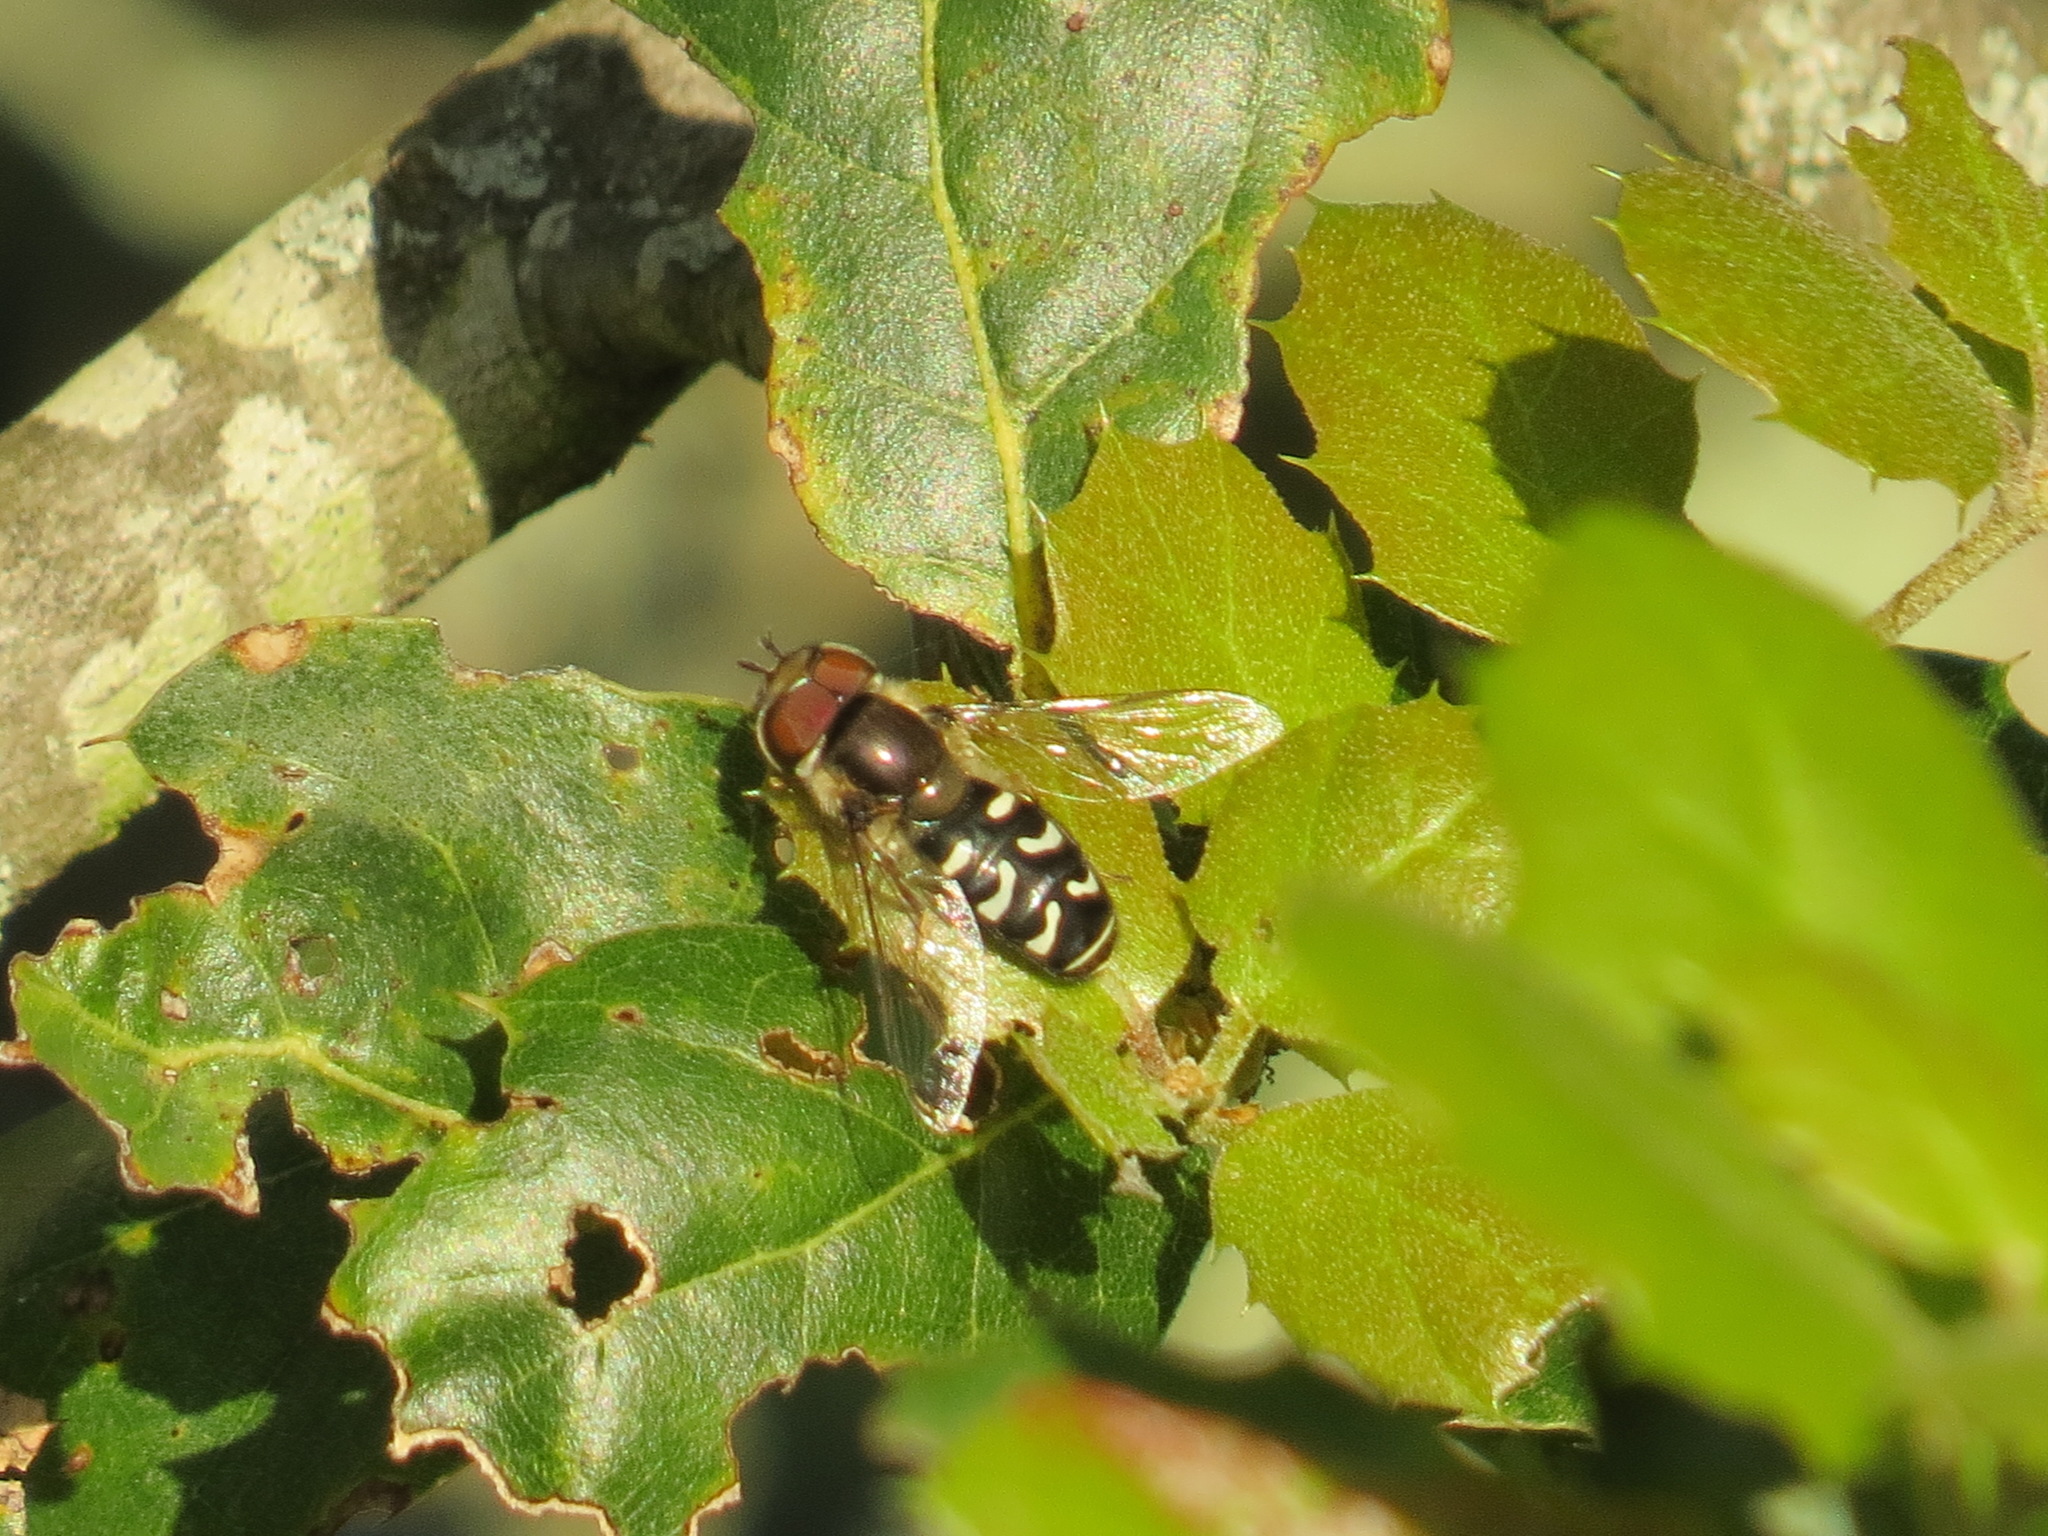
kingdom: Animalia
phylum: Arthropoda
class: Insecta
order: Diptera
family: Syrphidae
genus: Scaeva
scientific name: Scaeva affinis
